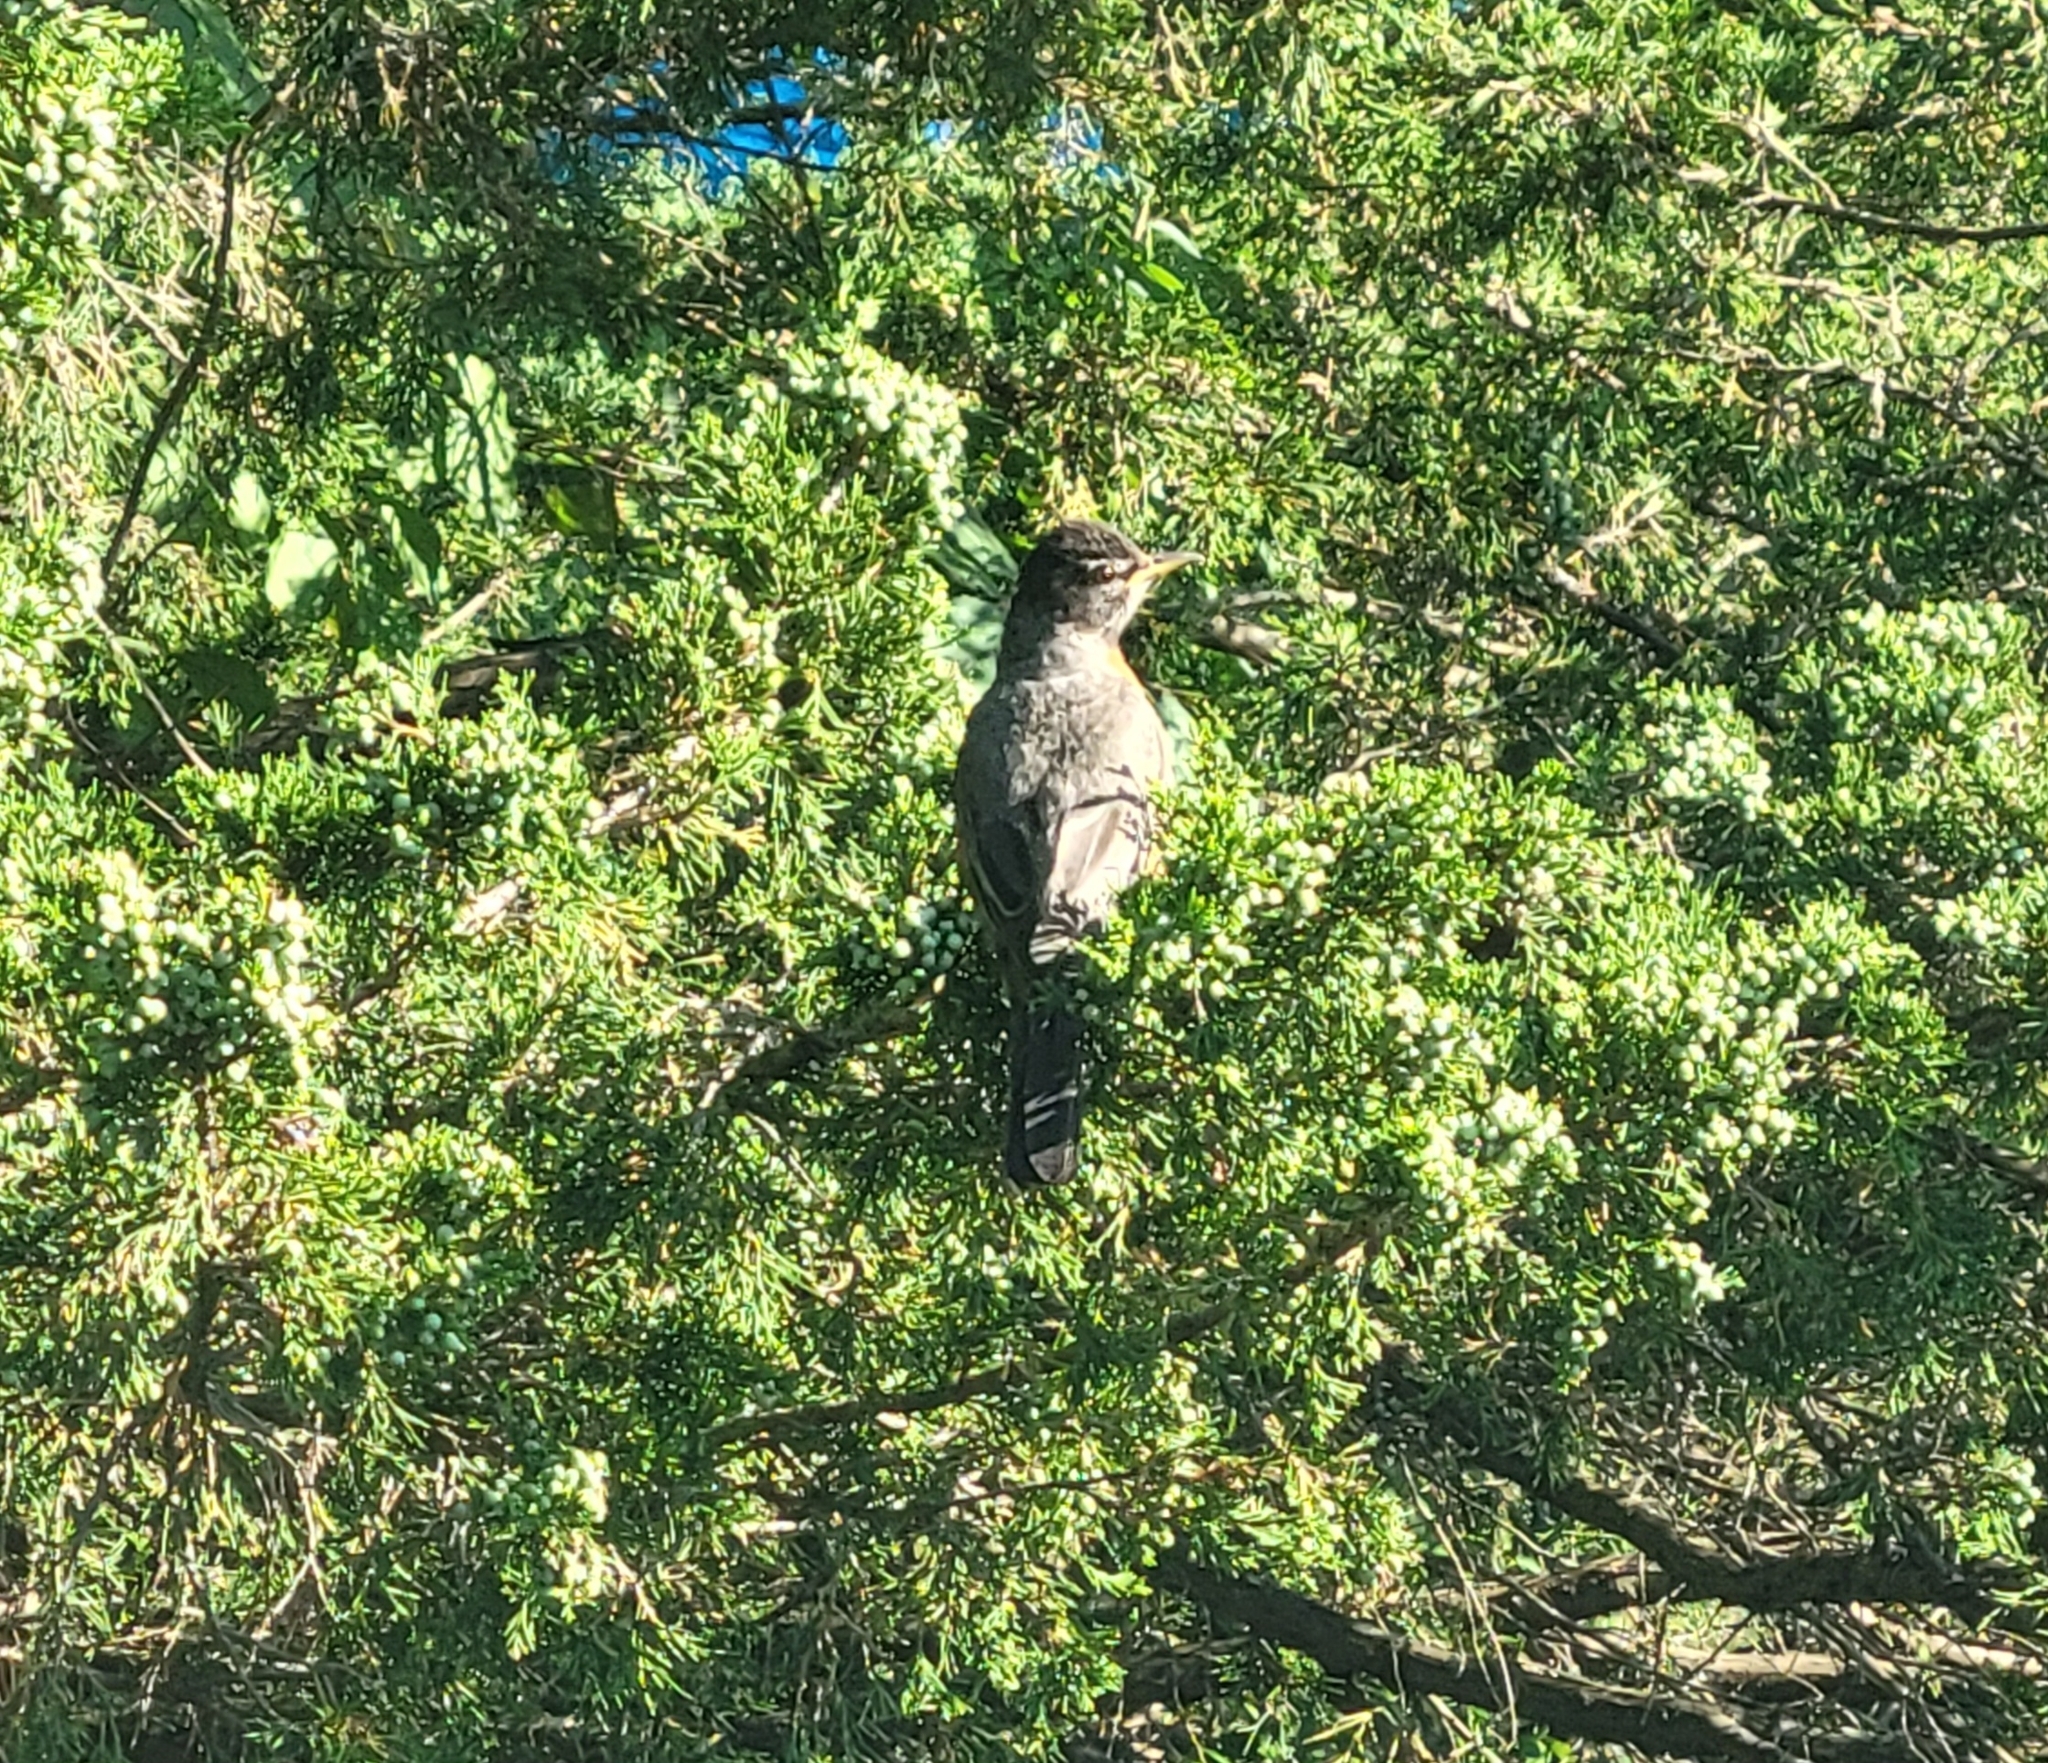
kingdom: Animalia
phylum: Chordata
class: Aves
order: Passeriformes
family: Turdidae
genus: Turdus
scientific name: Turdus migratorius
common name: American robin
